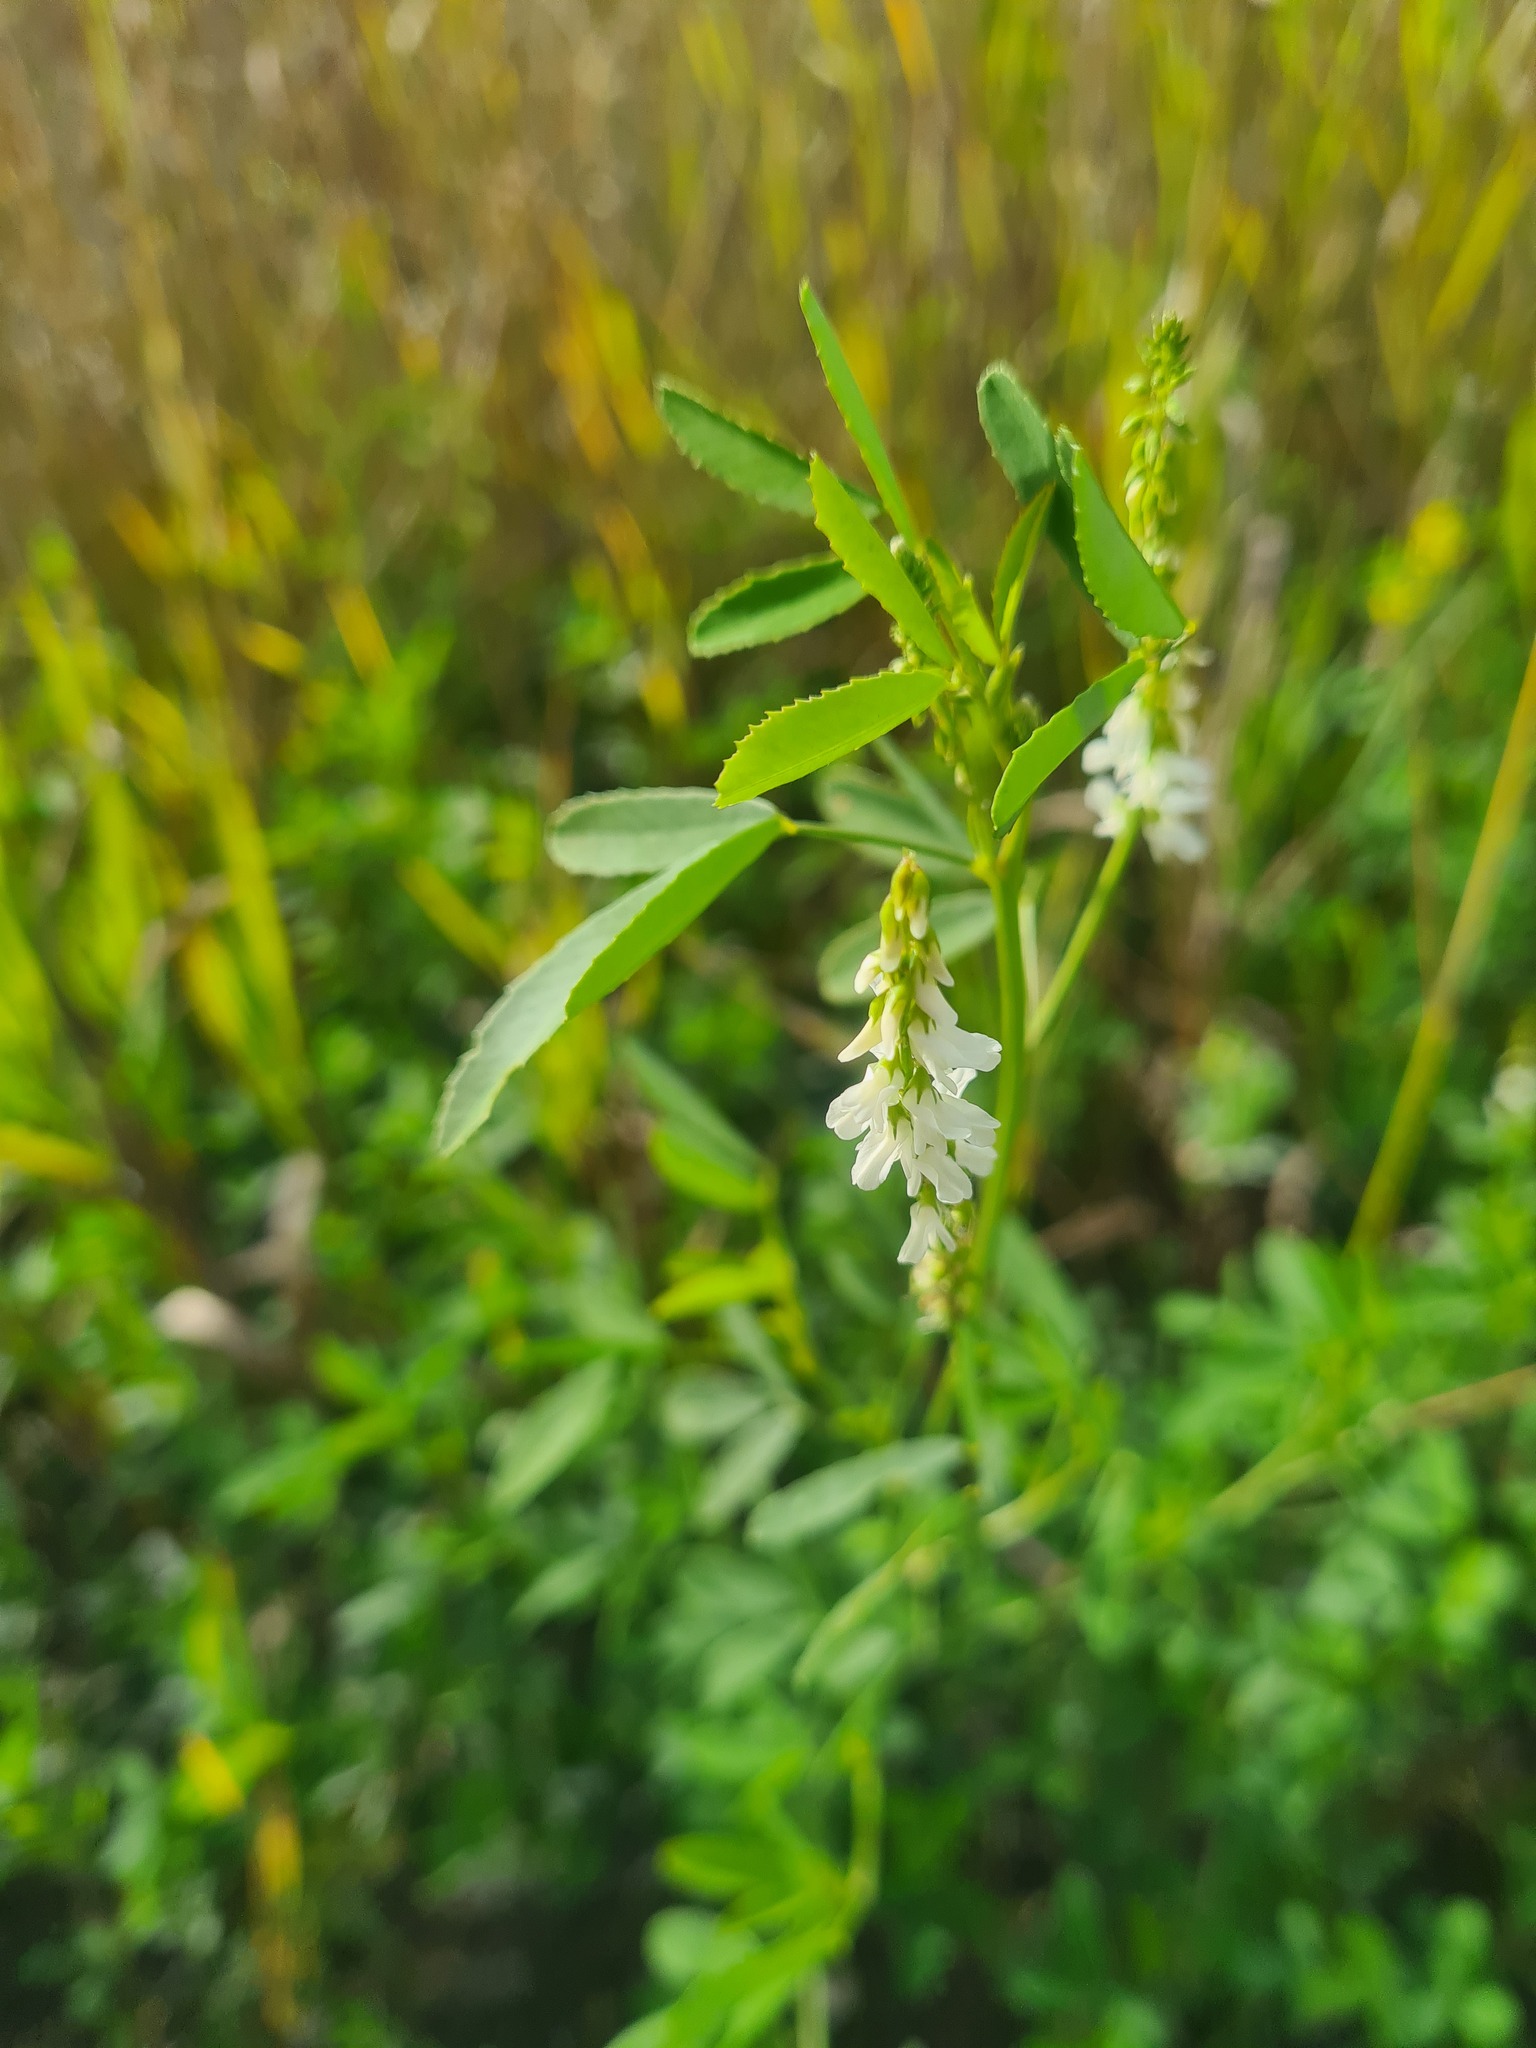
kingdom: Plantae
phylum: Tracheophyta
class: Magnoliopsida
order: Fabales
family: Fabaceae
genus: Melilotus
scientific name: Melilotus albus
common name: White melilot
